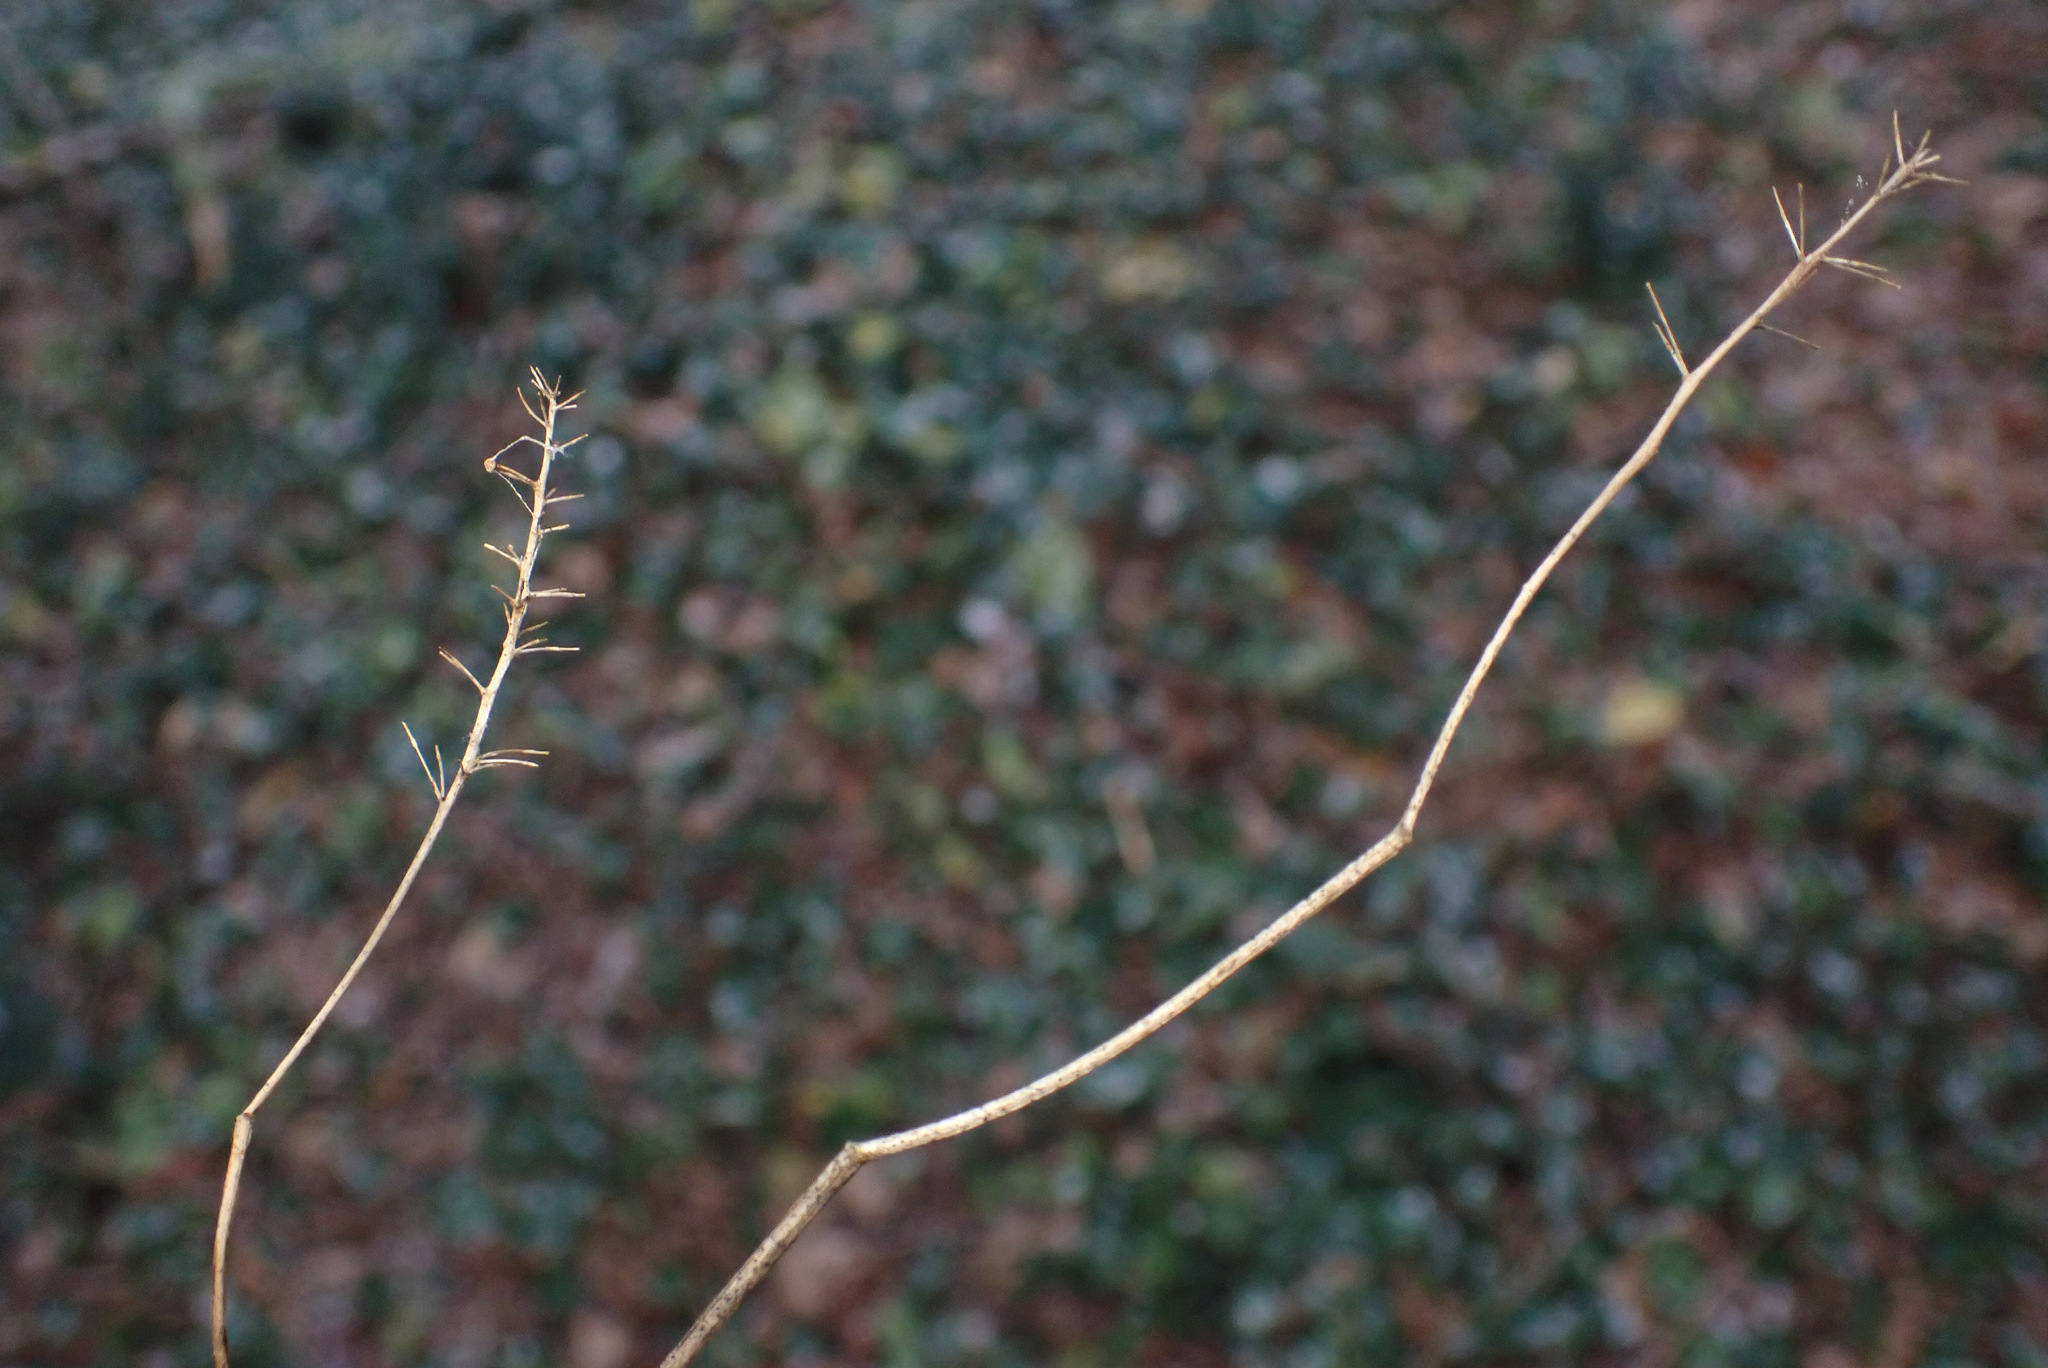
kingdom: Plantae
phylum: Tracheophyta
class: Liliopsida
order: Asparagales
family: Asparagaceae
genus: Maianthemum
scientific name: Maianthemum bifolium
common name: May lily
